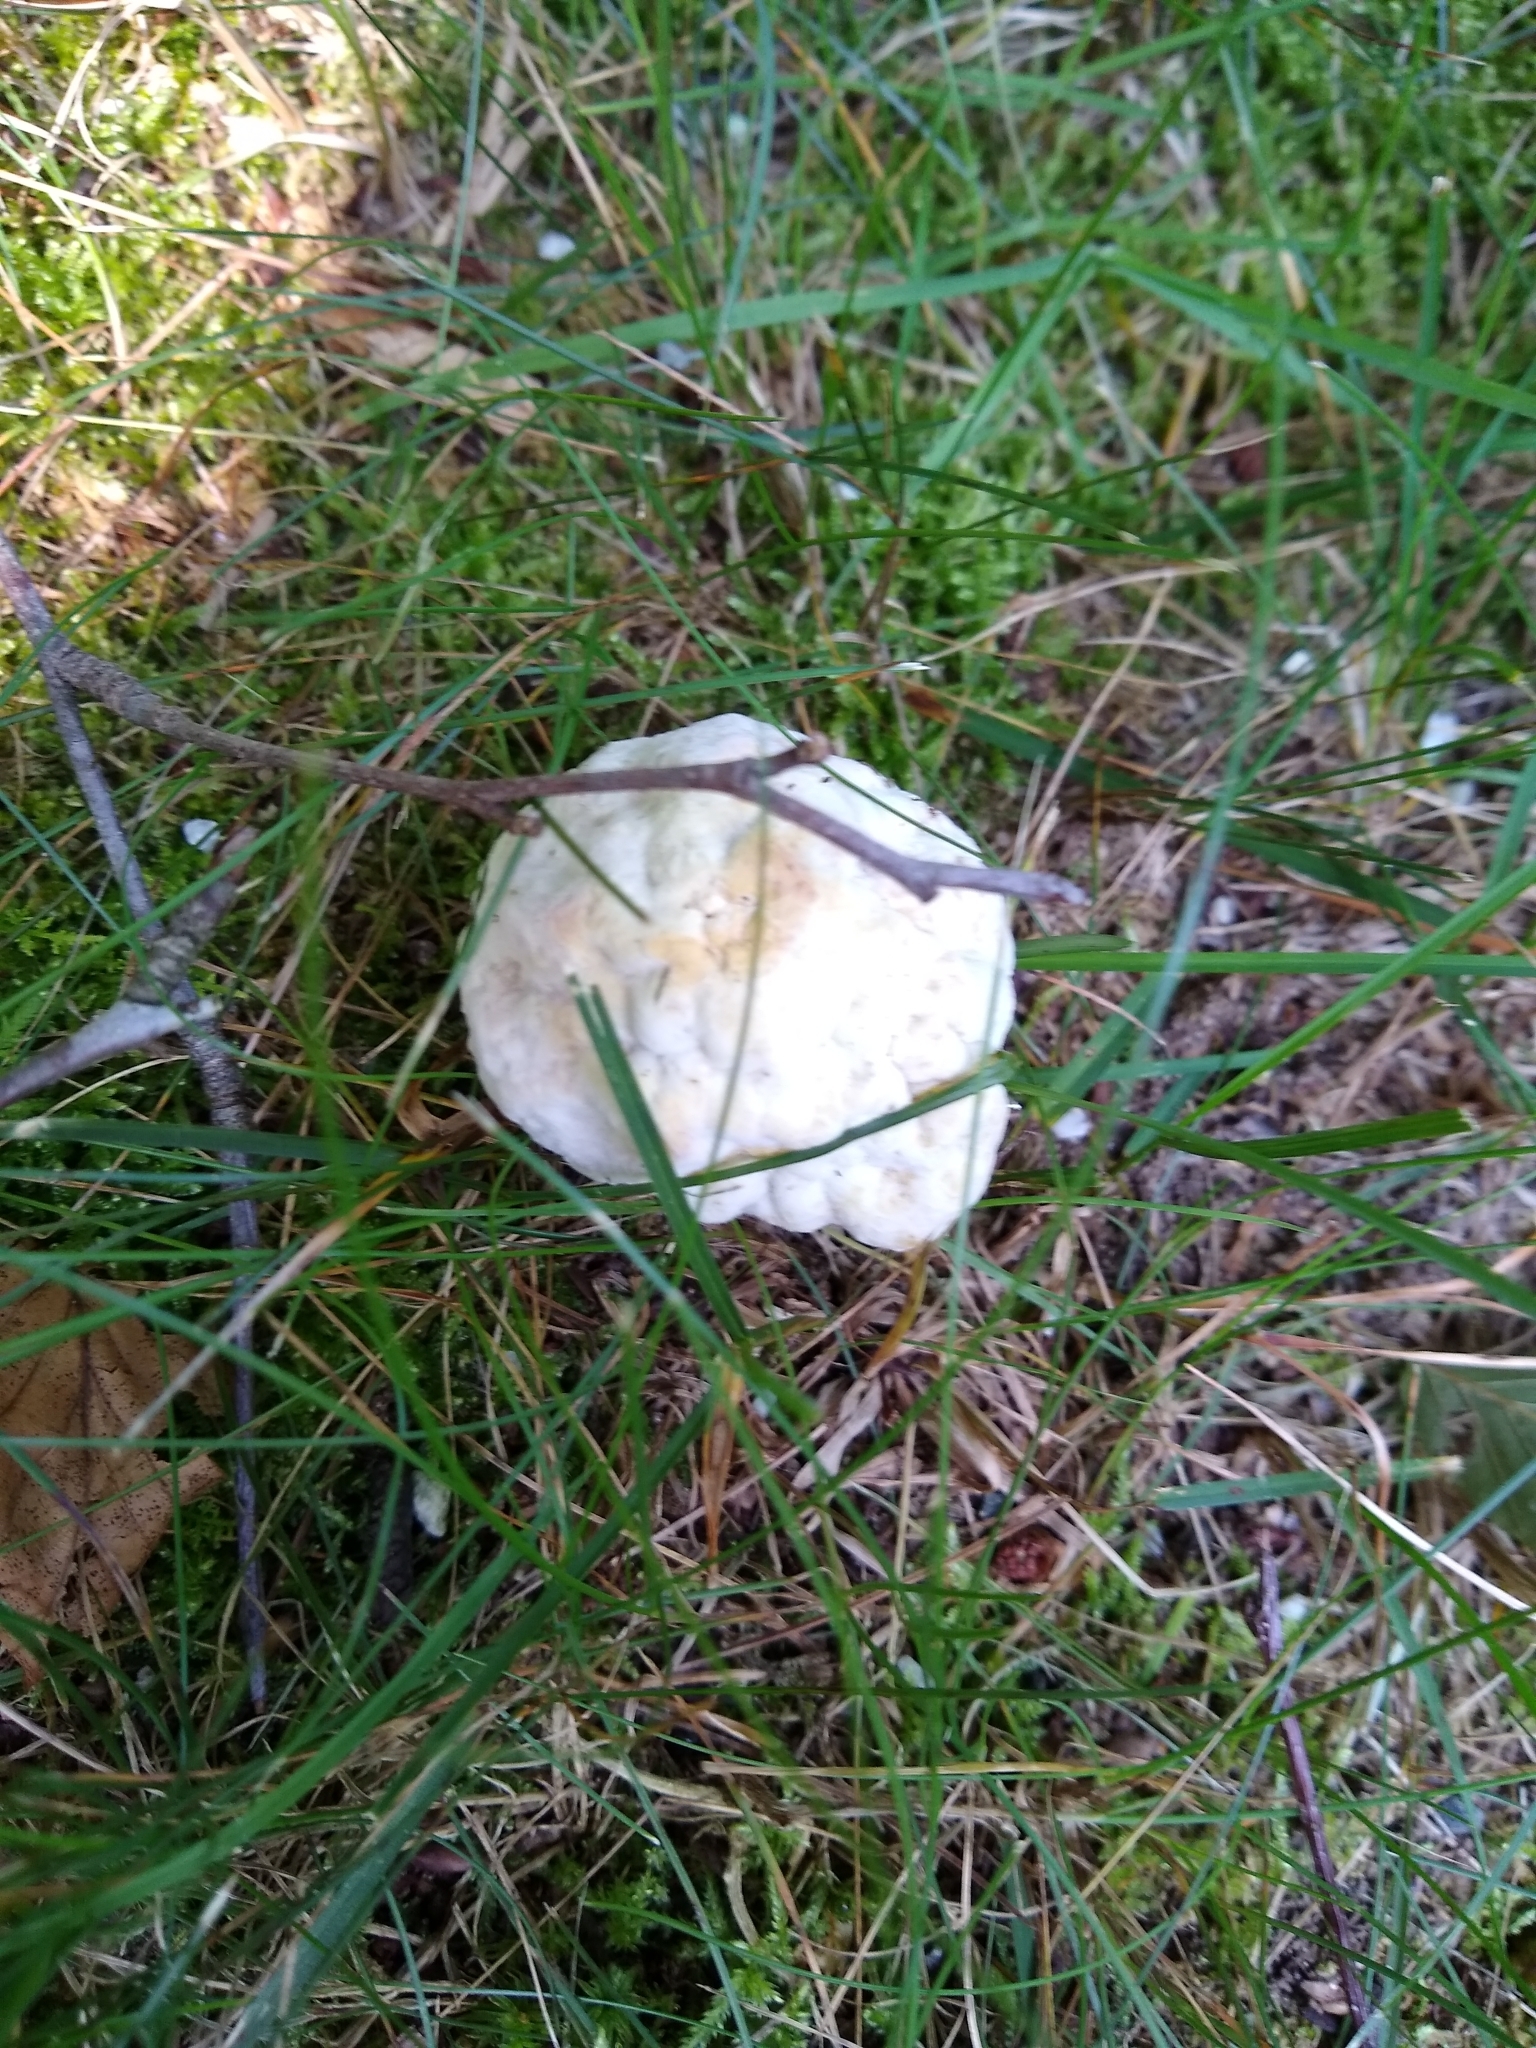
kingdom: Fungi
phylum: Ascomycota
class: Sordariomycetes
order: Hypocreales
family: Hypocreaceae
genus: Hypomyces
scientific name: Hypomyces chrysospermus
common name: Bolete mould
